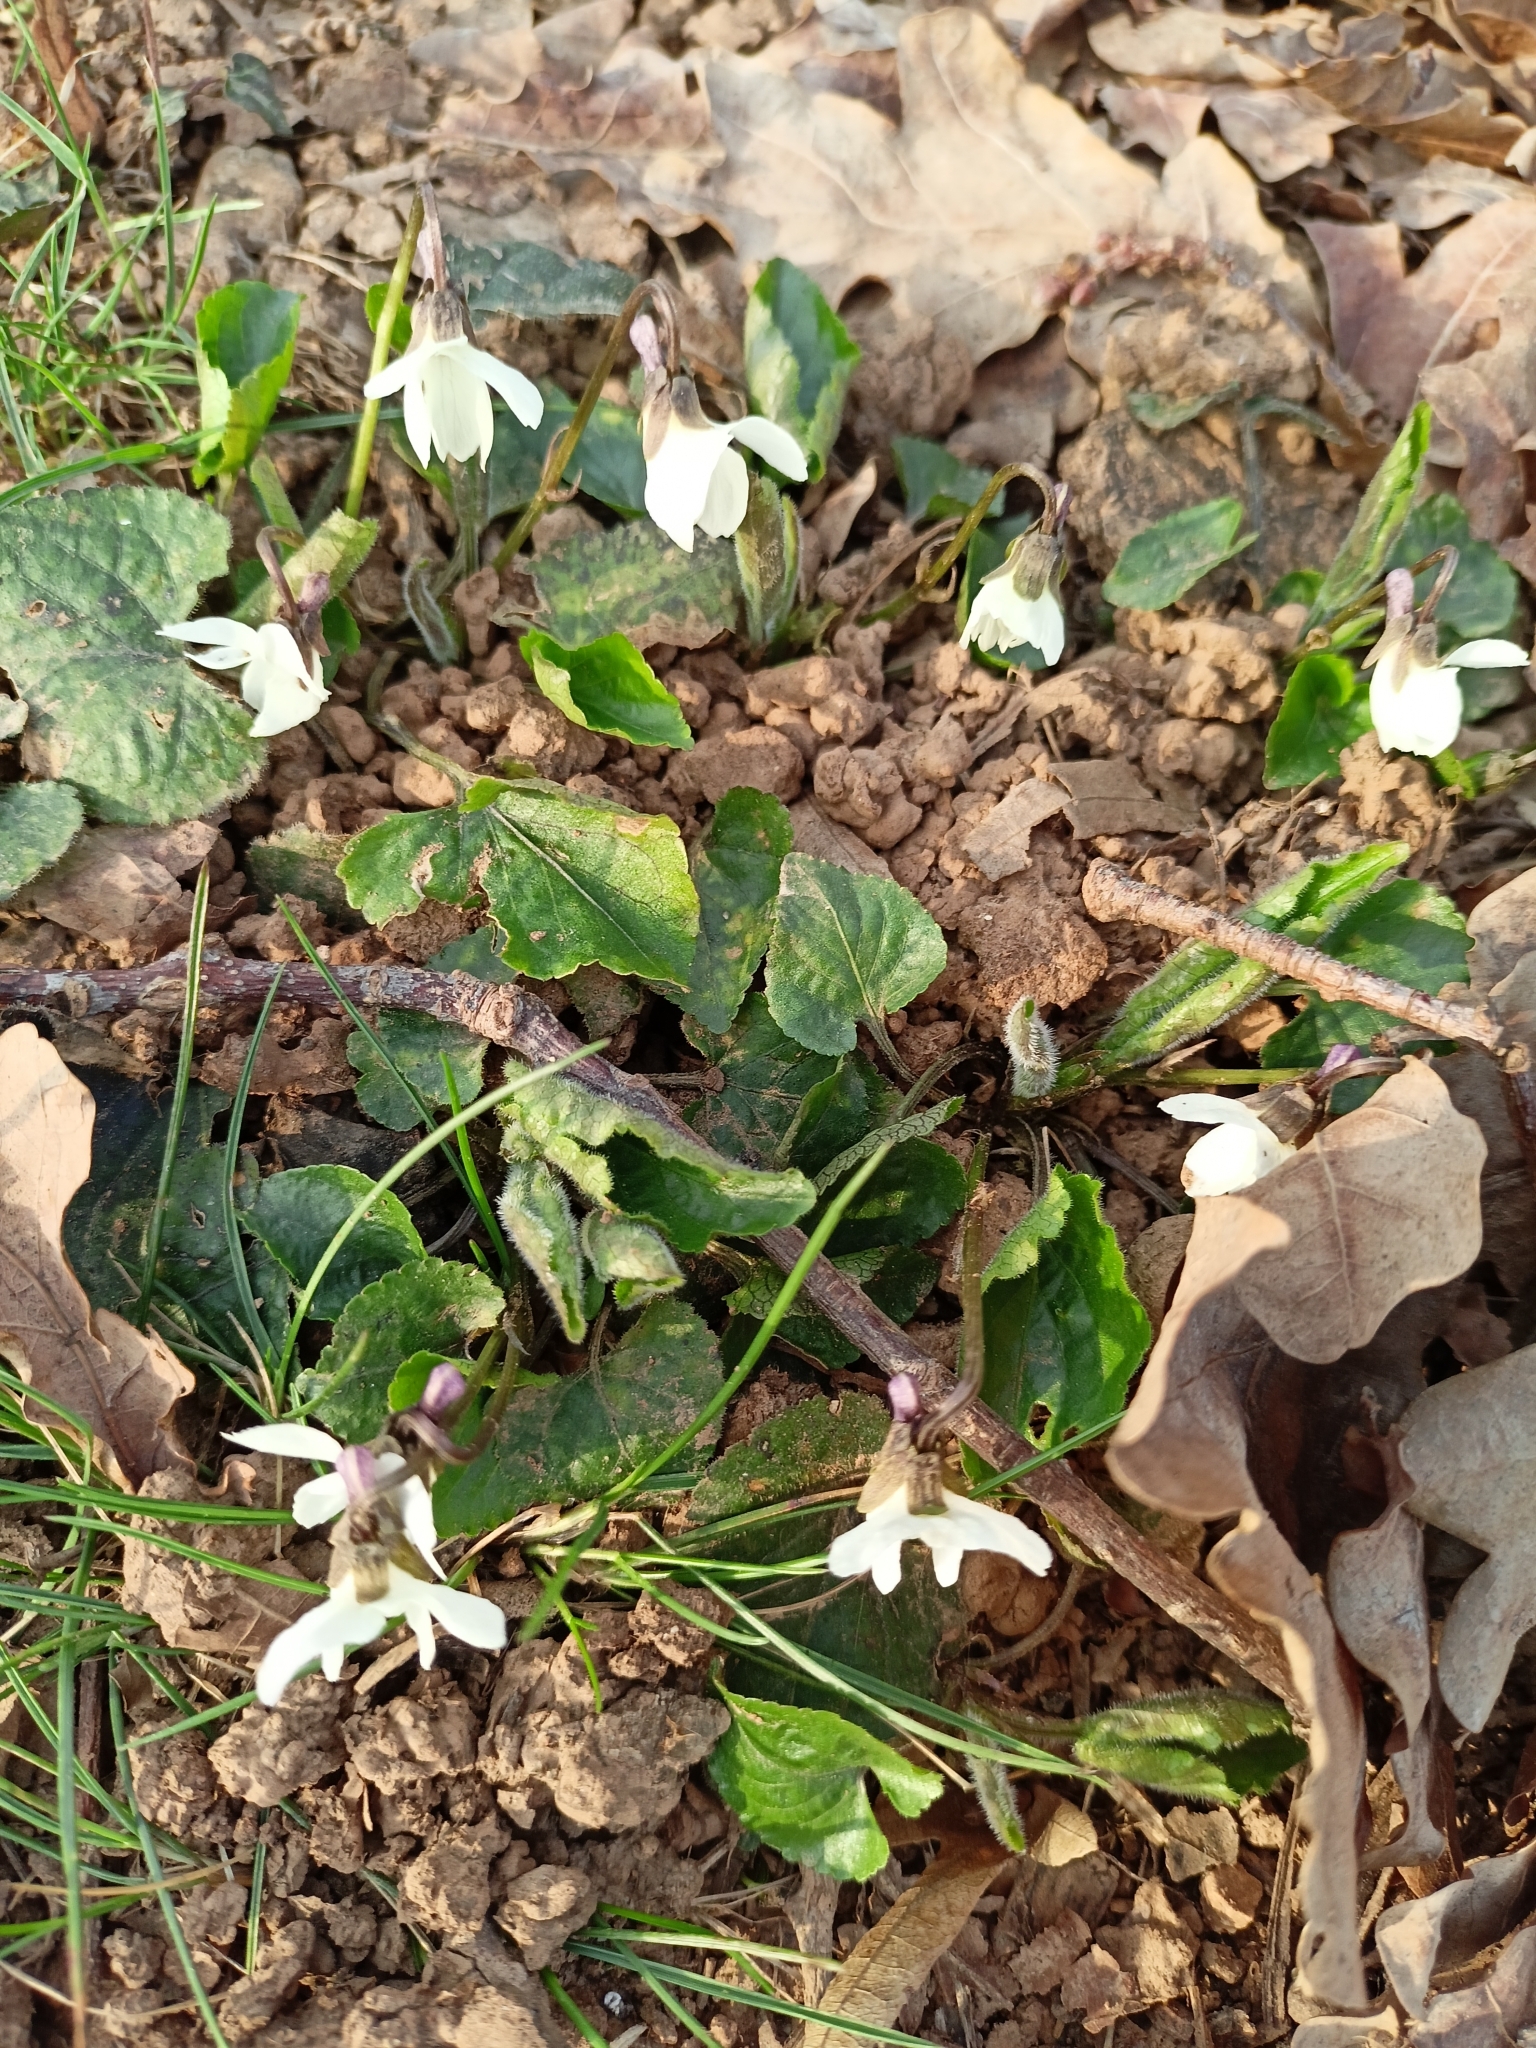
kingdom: Plantae
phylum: Tracheophyta
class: Magnoliopsida
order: Malpighiales
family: Violaceae
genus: Viola
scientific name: Viola alba
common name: White violet
